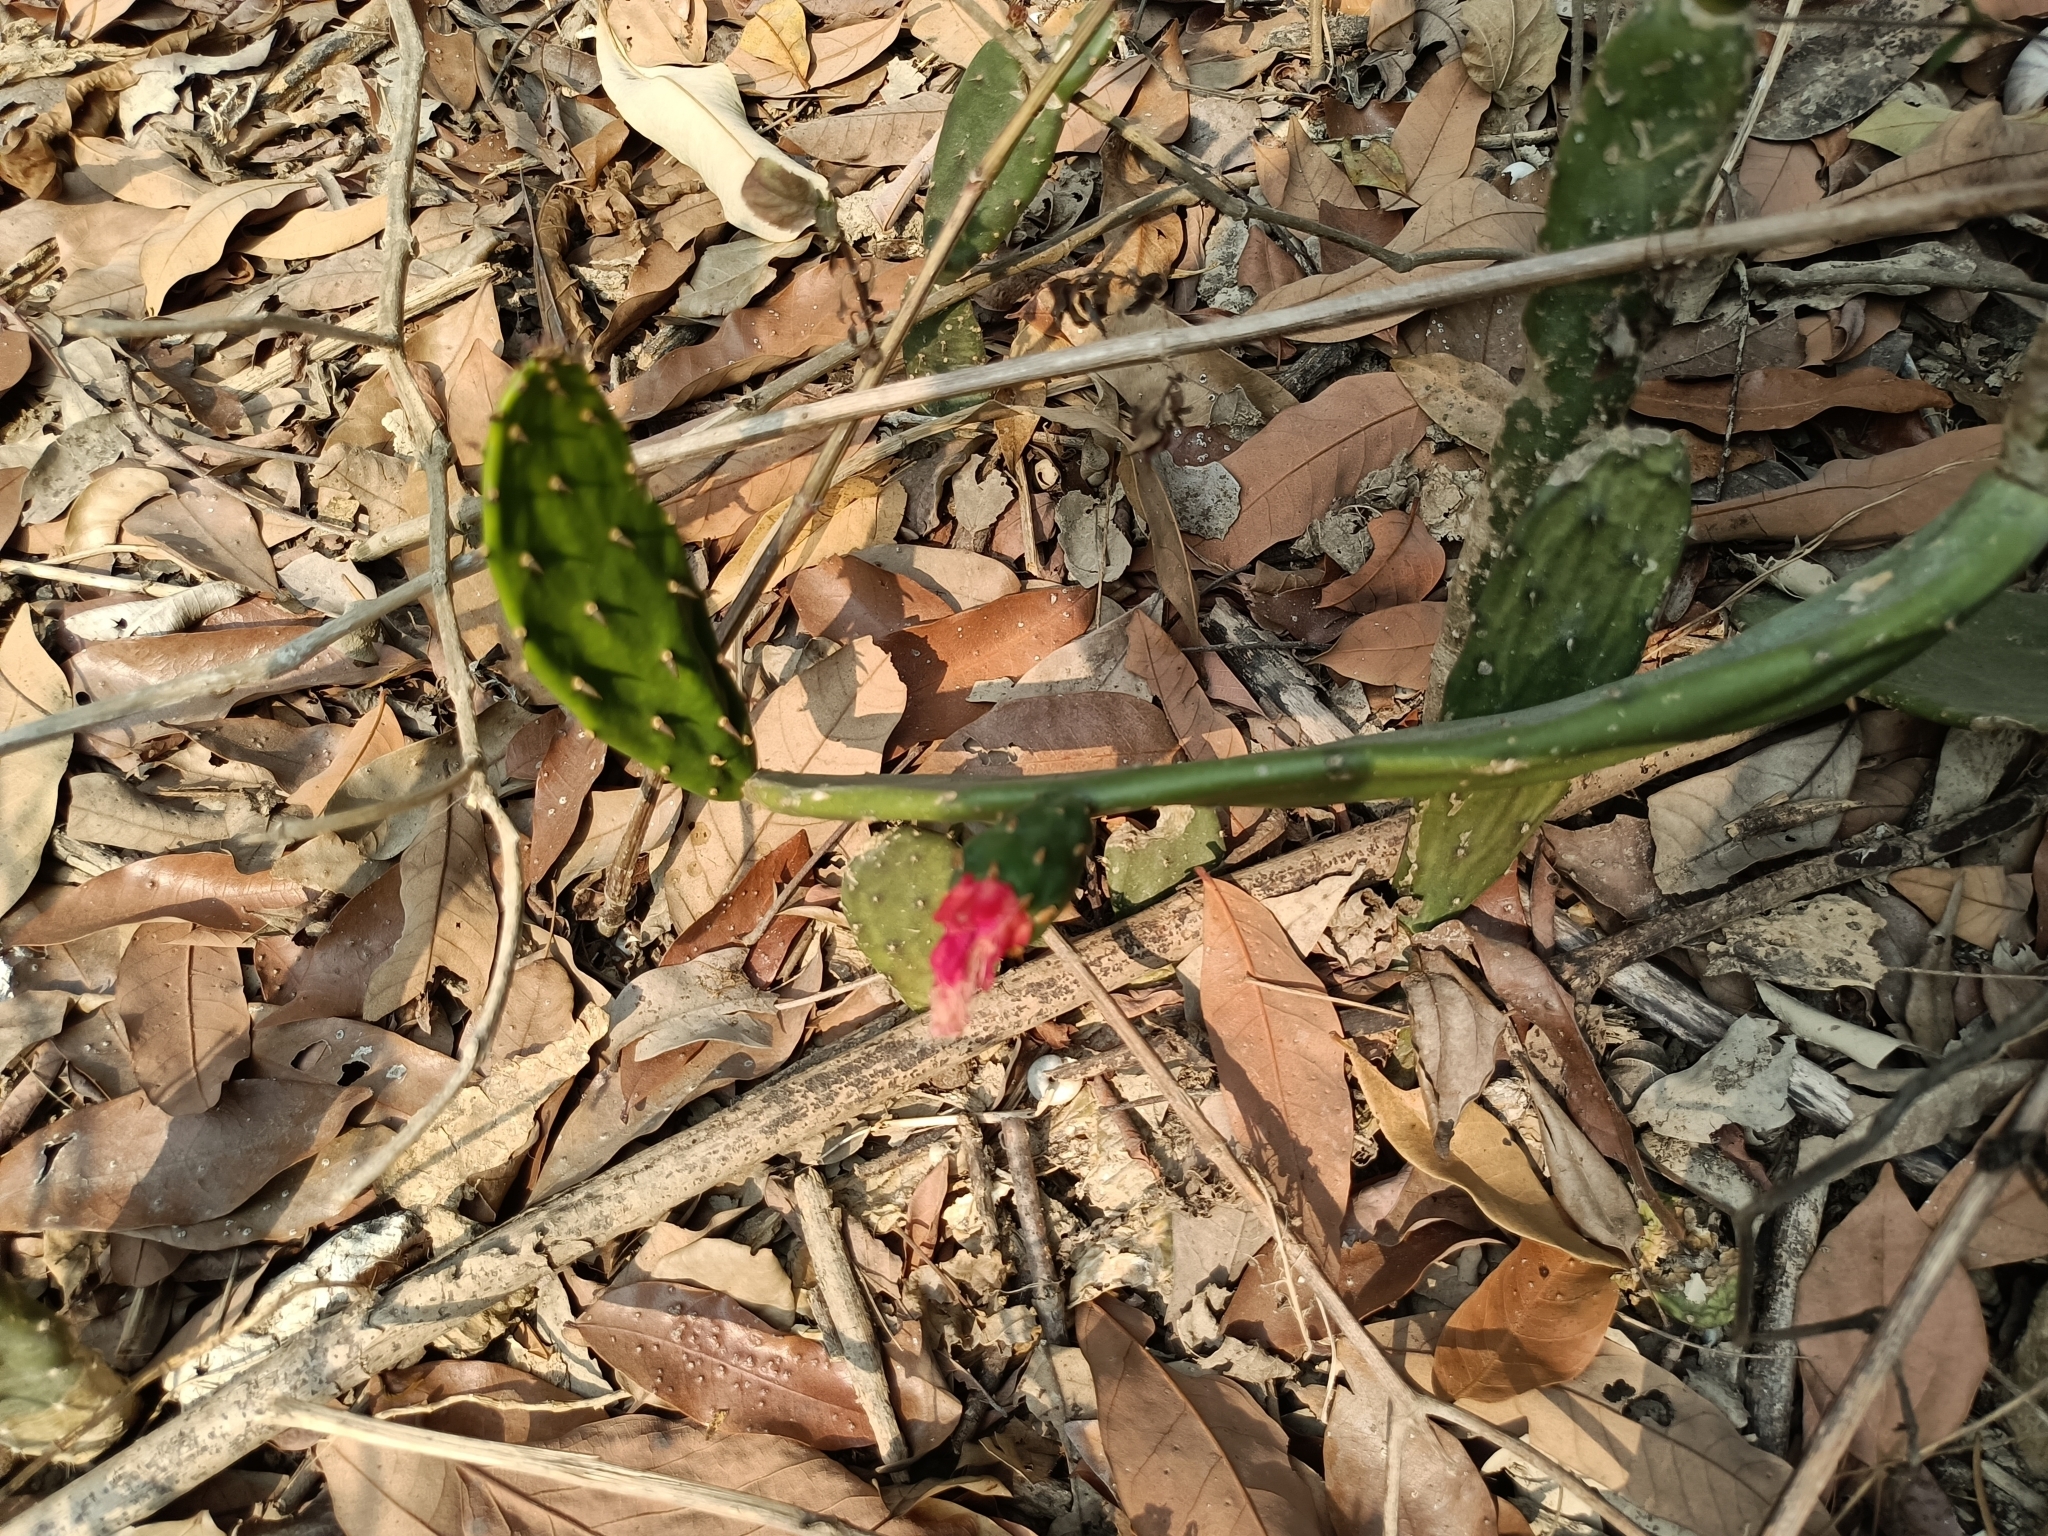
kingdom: Plantae
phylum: Tracheophyta
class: Magnoliopsida
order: Caryophyllales
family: Cactaceae
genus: Opuntia
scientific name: Opuntia cochenillifera
